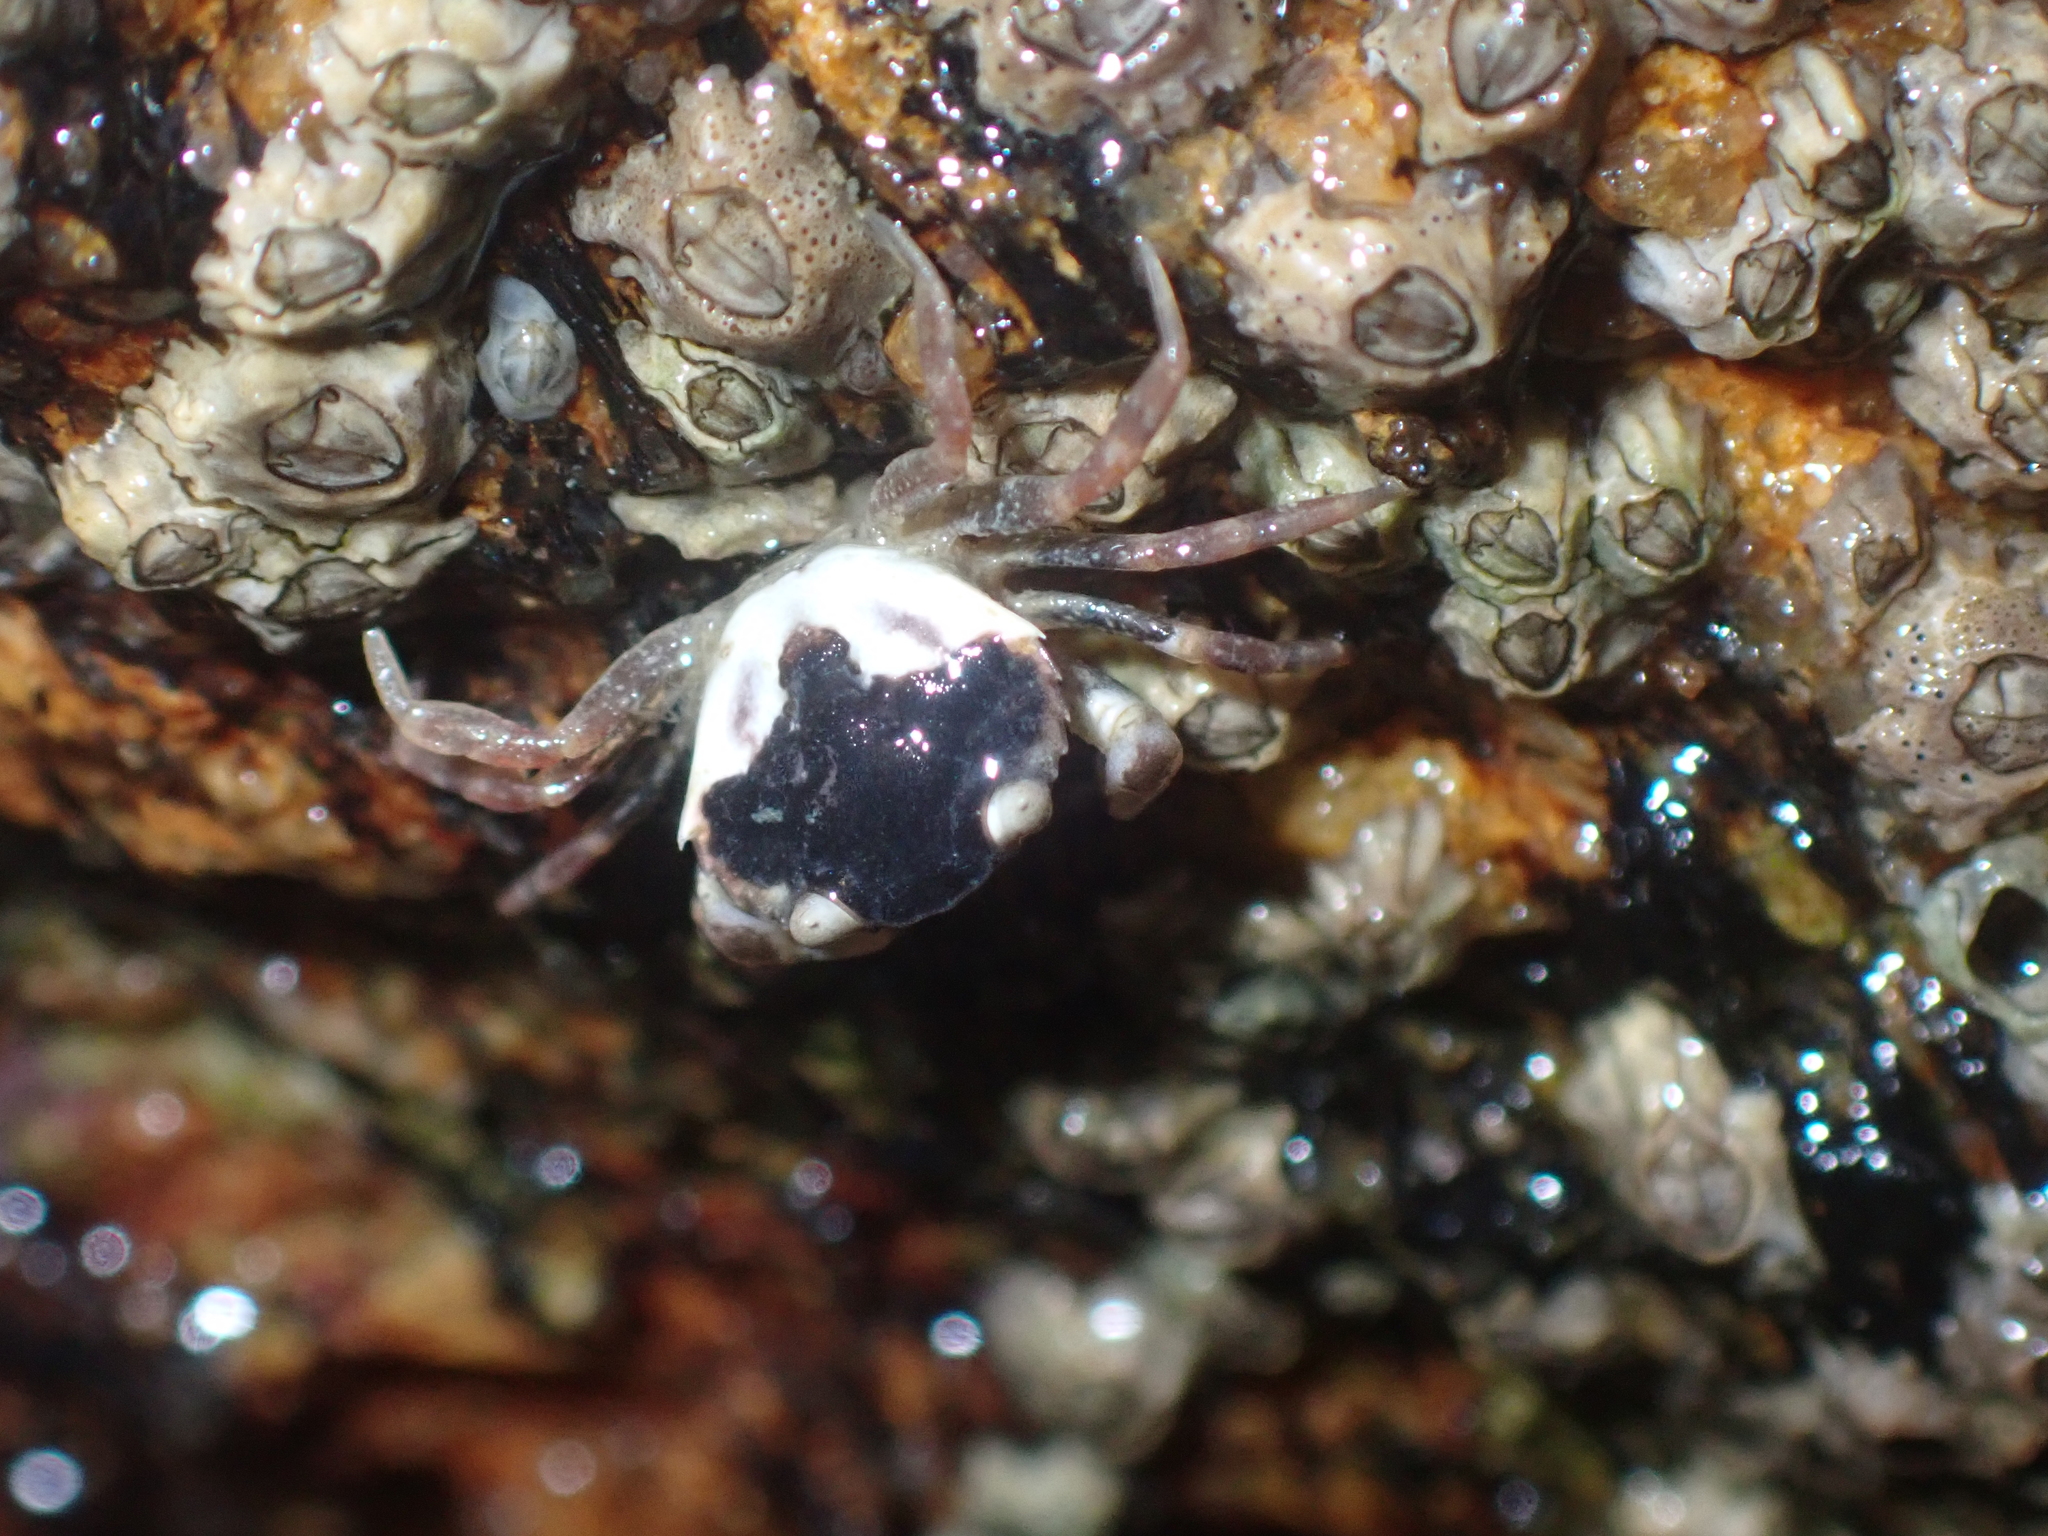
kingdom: Animalia
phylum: Arthropoda
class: Malacostraca
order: Decapoda
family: Carcinidae
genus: Carcinus
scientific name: Carcinus maenas
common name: European green crab
